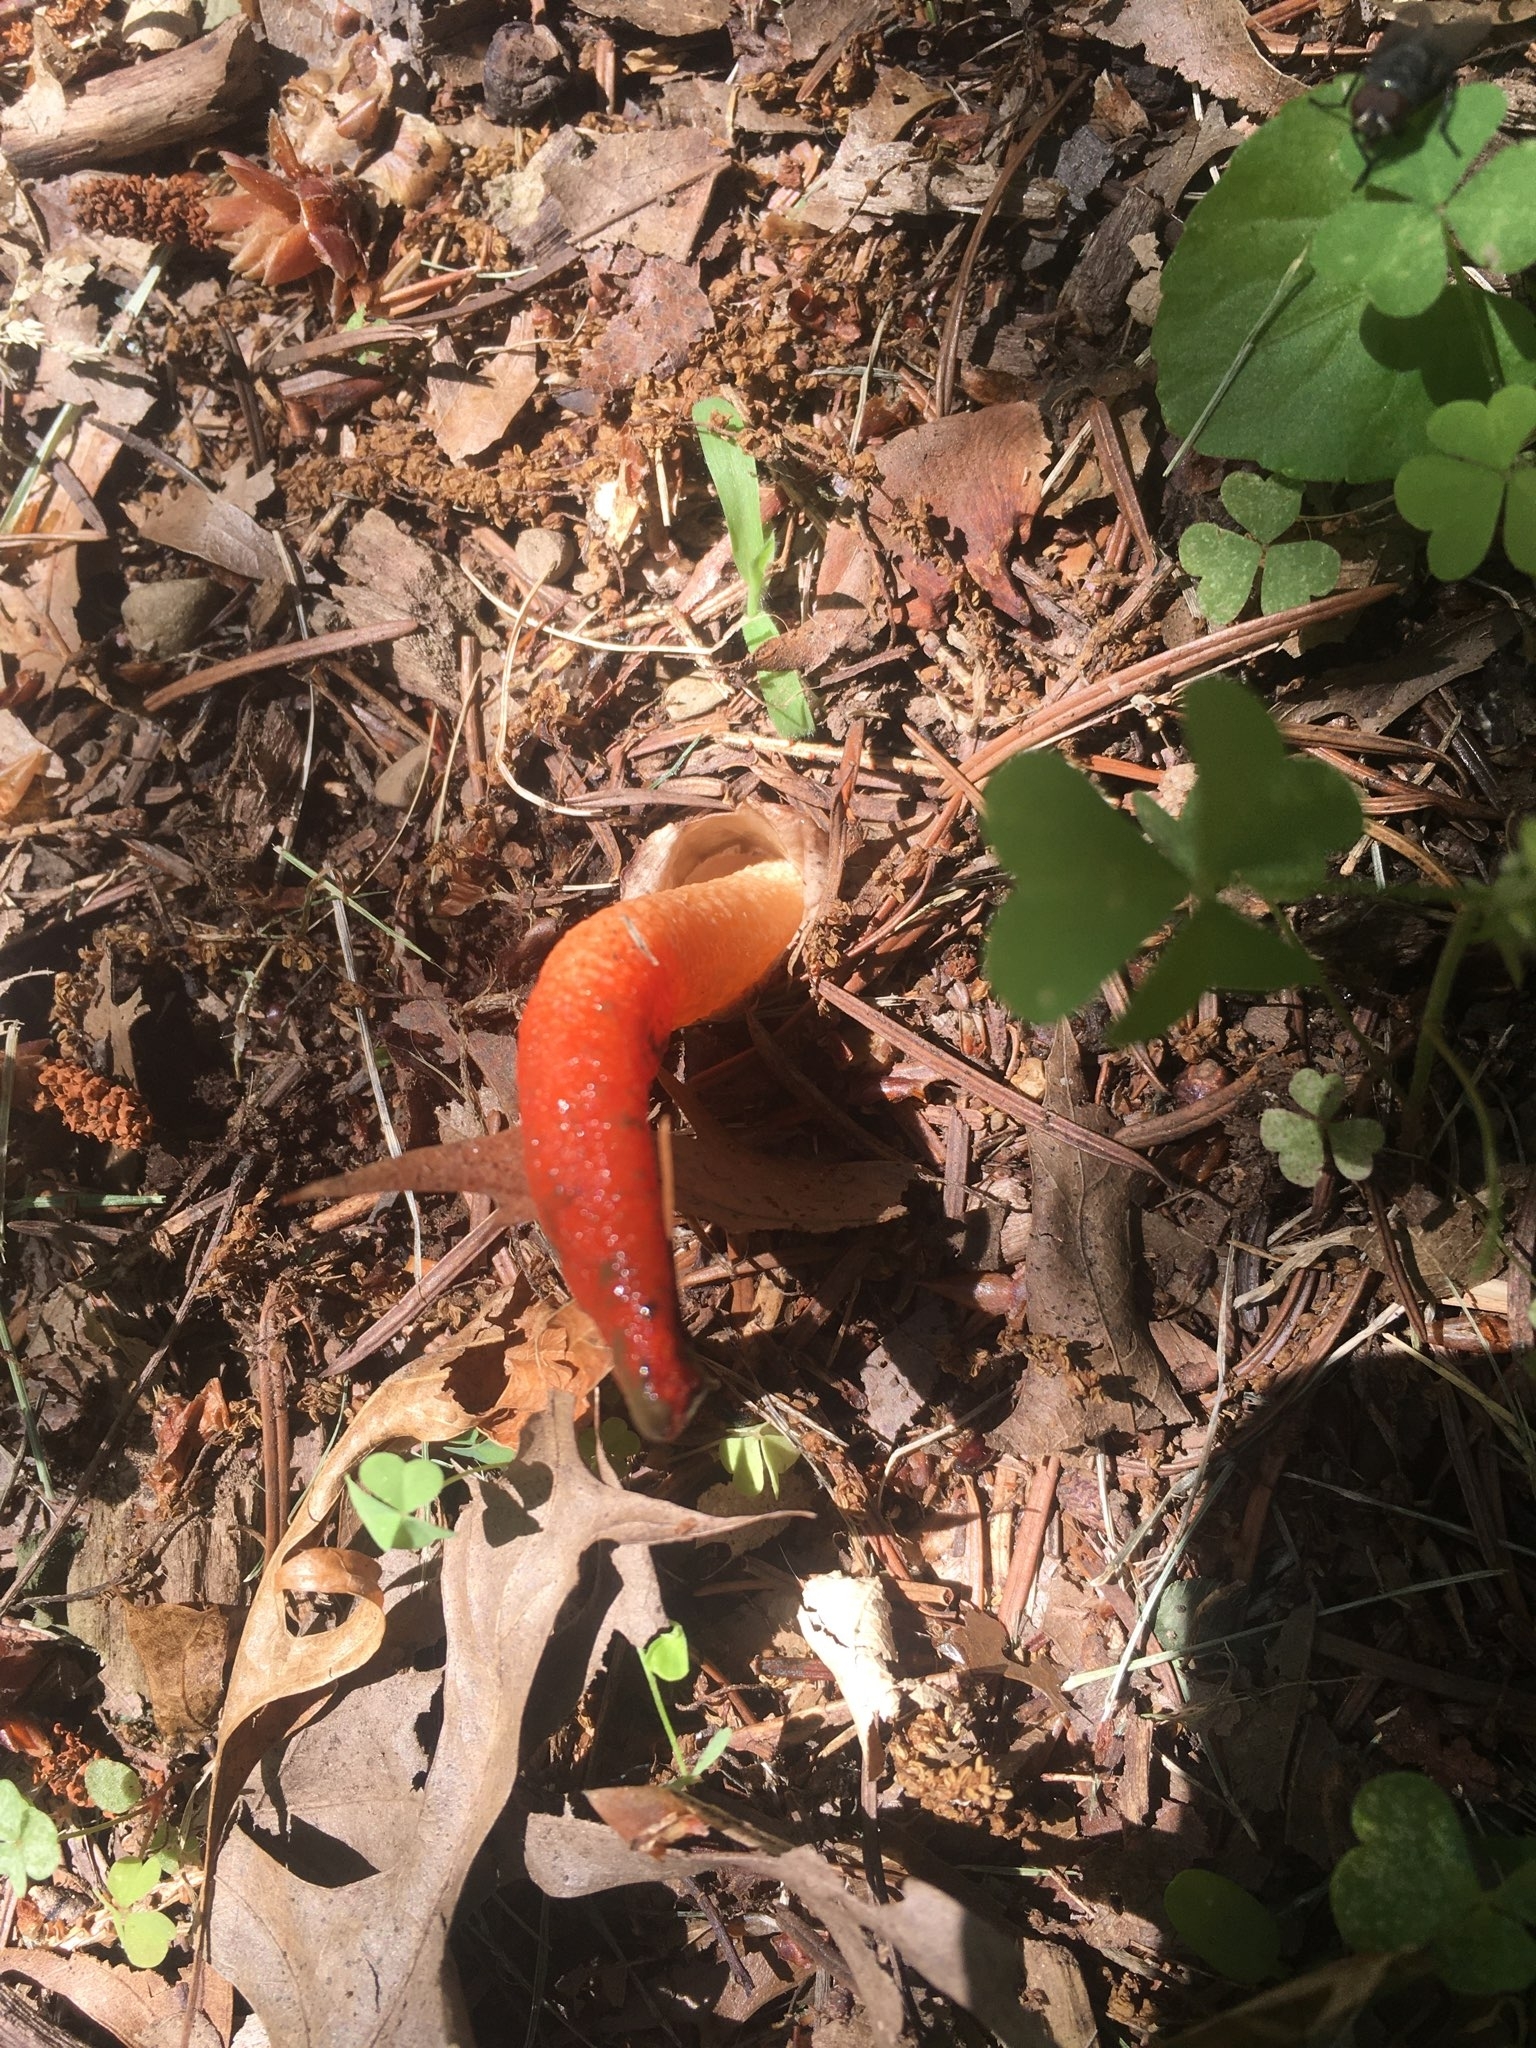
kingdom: Fungi
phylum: Basidiomycota
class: Agaricomycetes
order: Phallales
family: Phallaceae
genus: Mutinus
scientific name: Mutinus elegans
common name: Devil's dipstick
